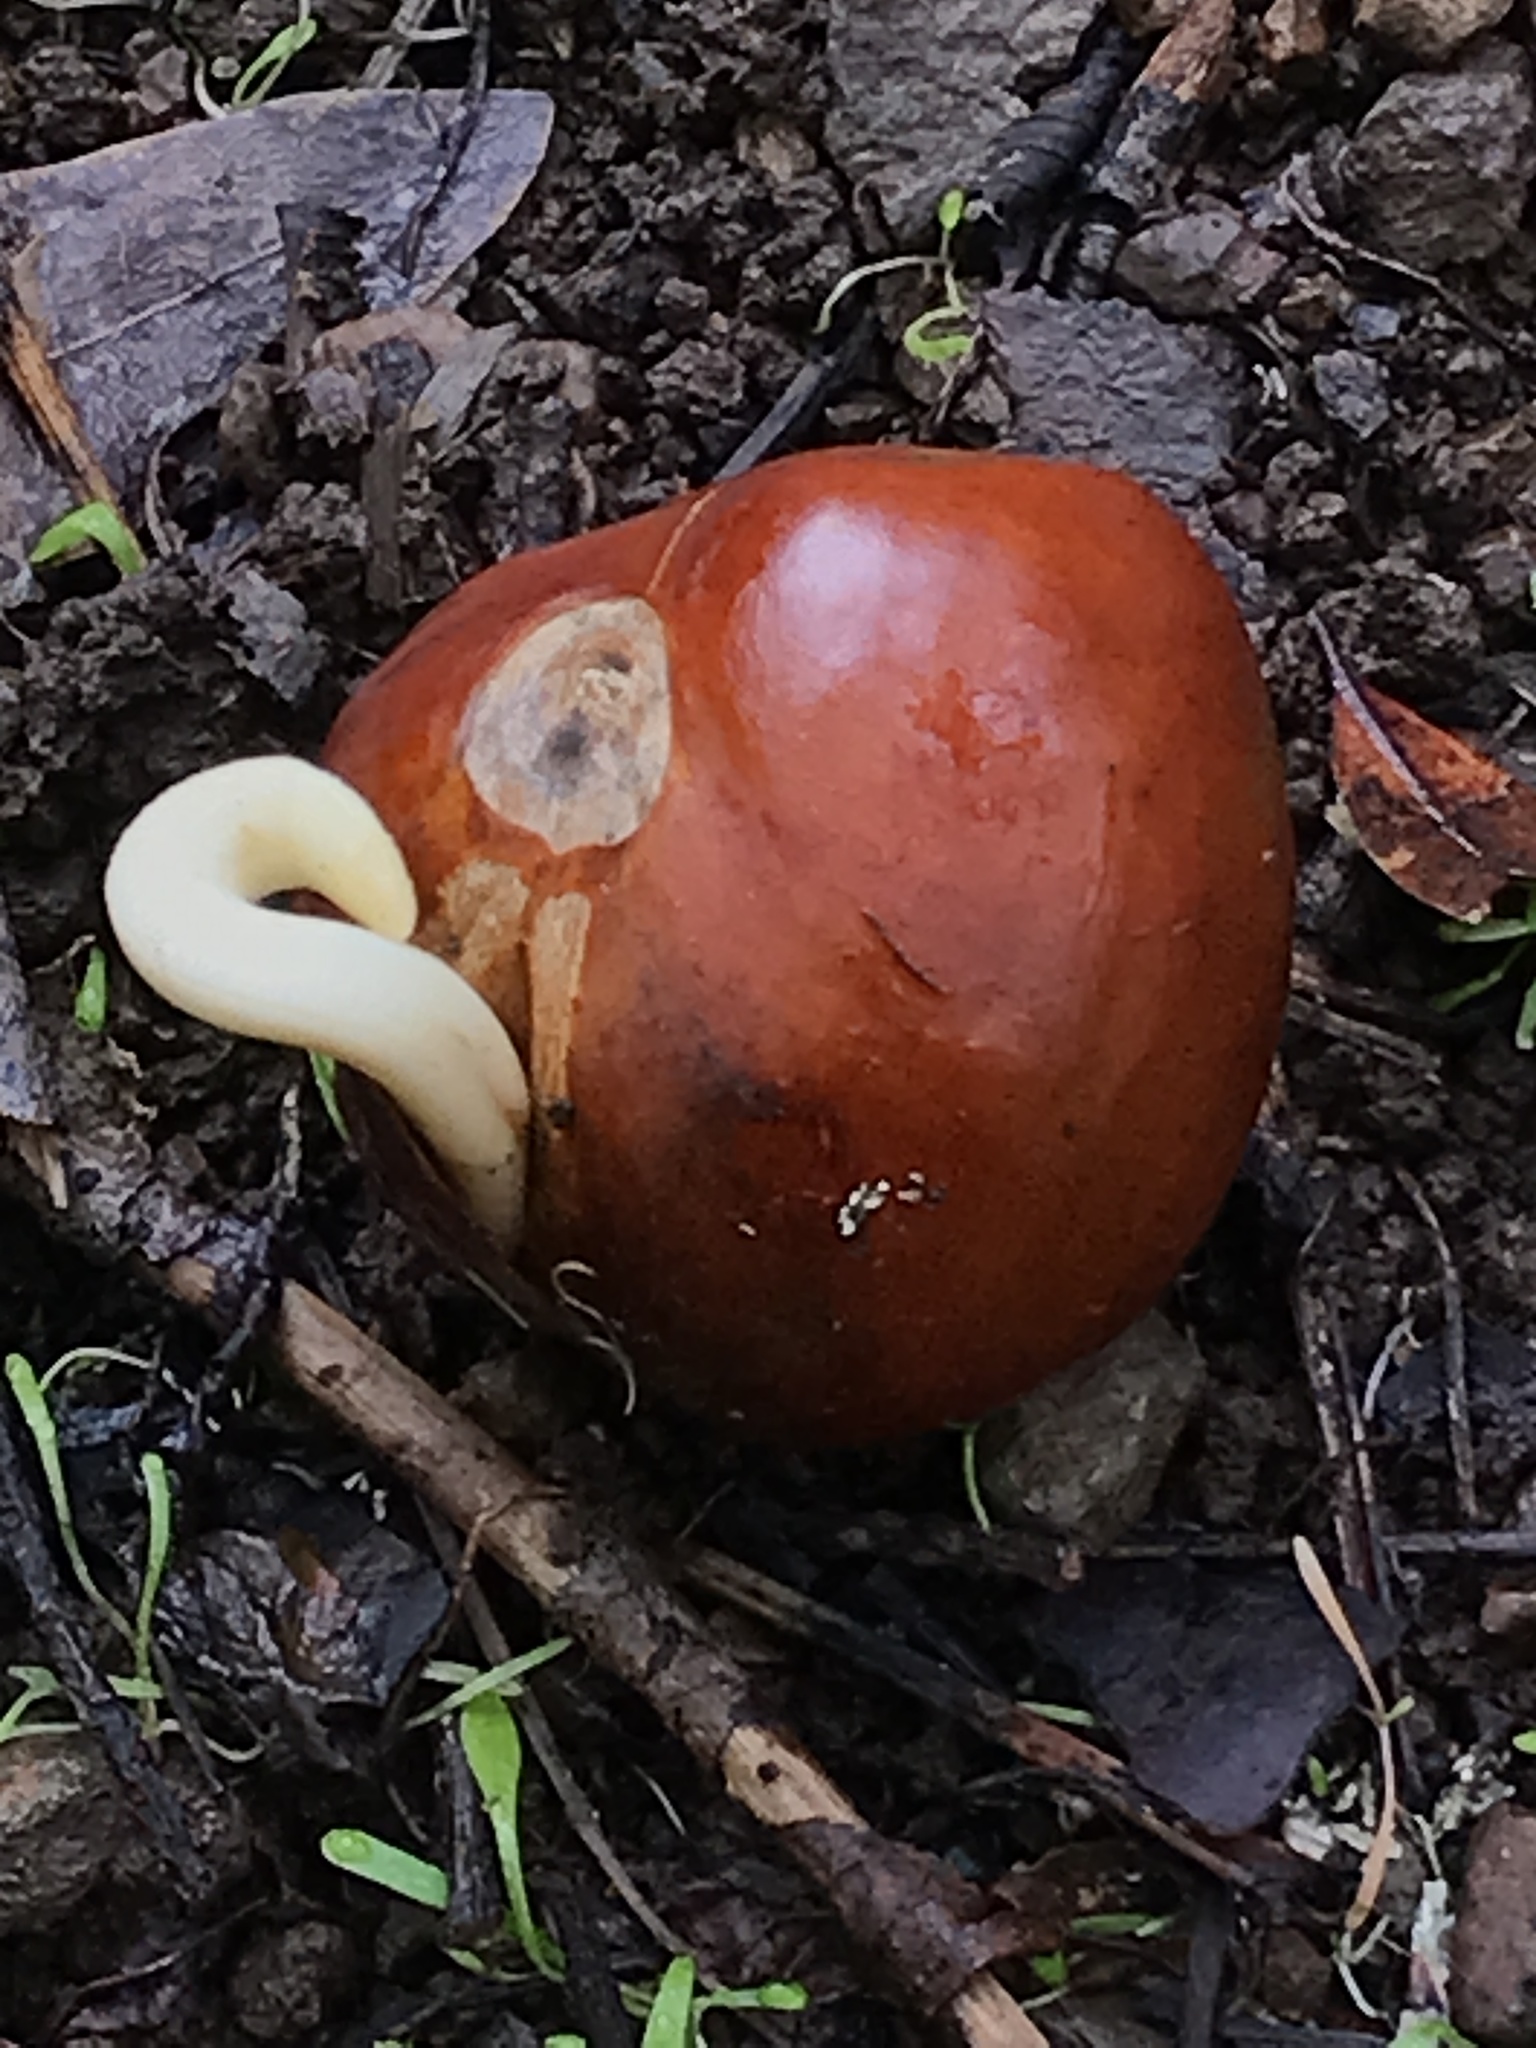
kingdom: Plantae
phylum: Tracheophyta
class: Magnoliopsida
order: Sapindales
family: Sapindaceae
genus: Aesculus
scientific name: Aesculus californica
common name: California buckeye
